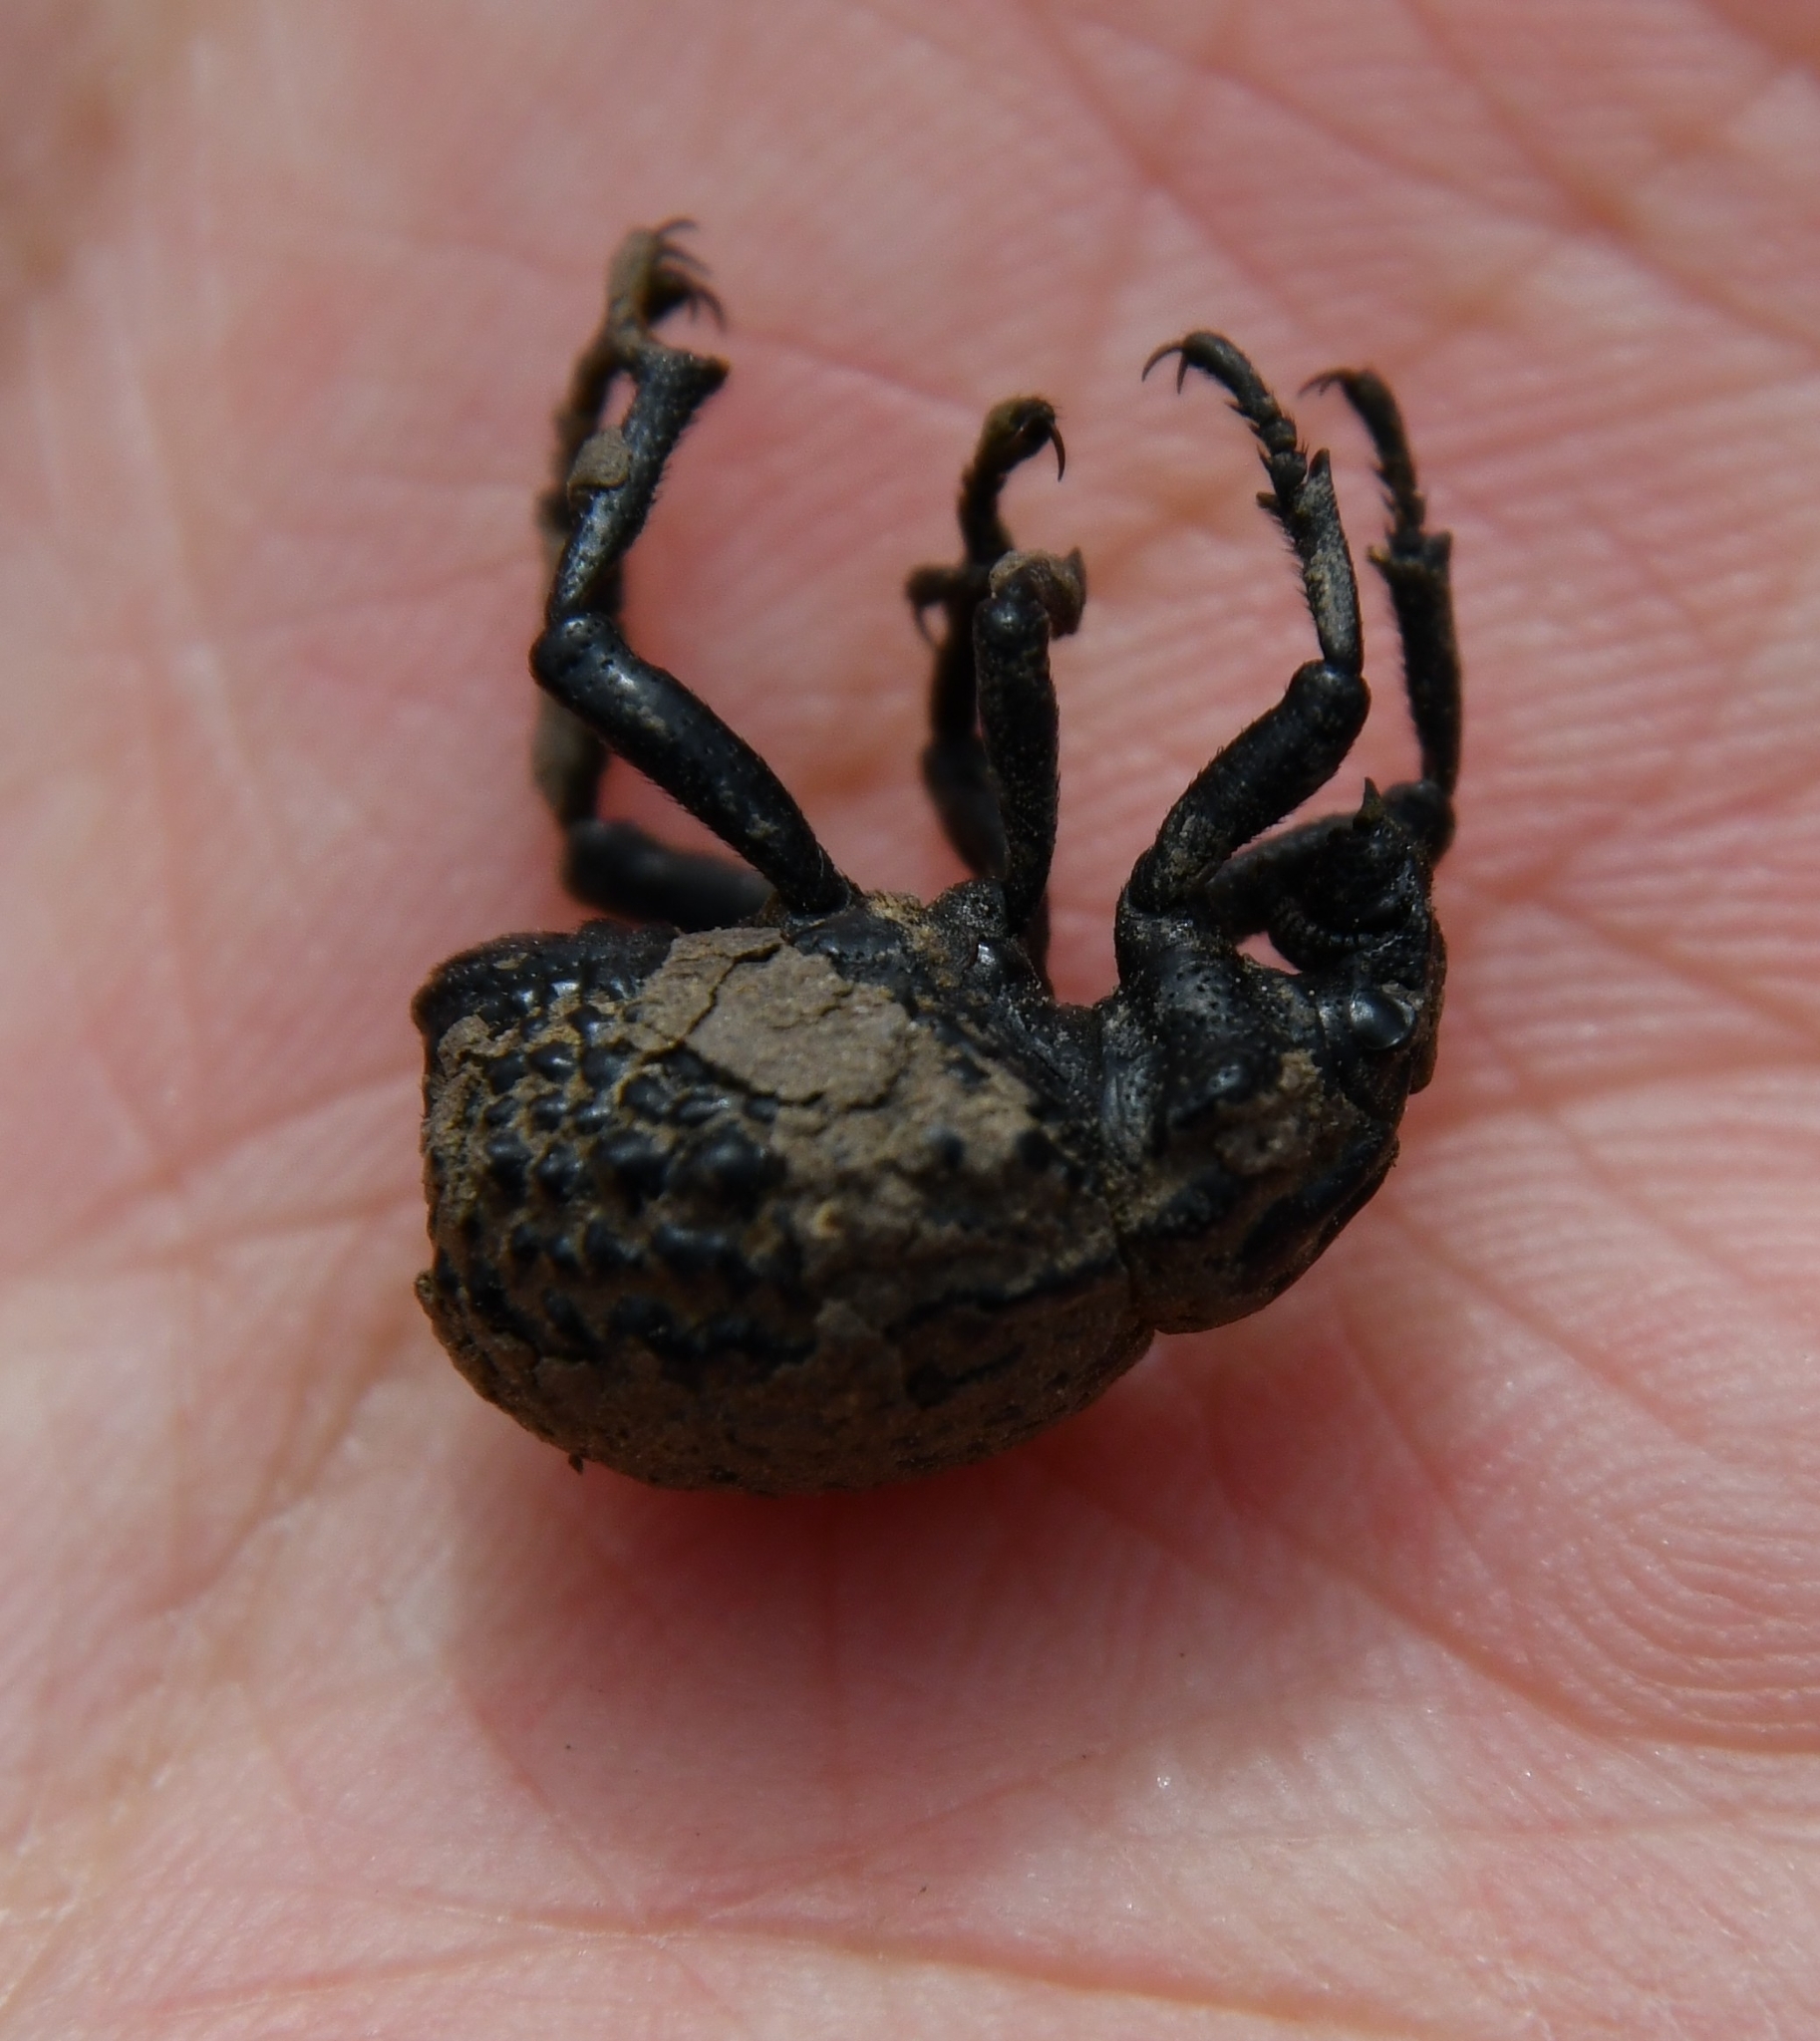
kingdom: Animalia
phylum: Arthropoda
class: Insecta
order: Coleoptera
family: Brachyceridae
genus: Brachycerus
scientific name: Brachycerus sinuatus
